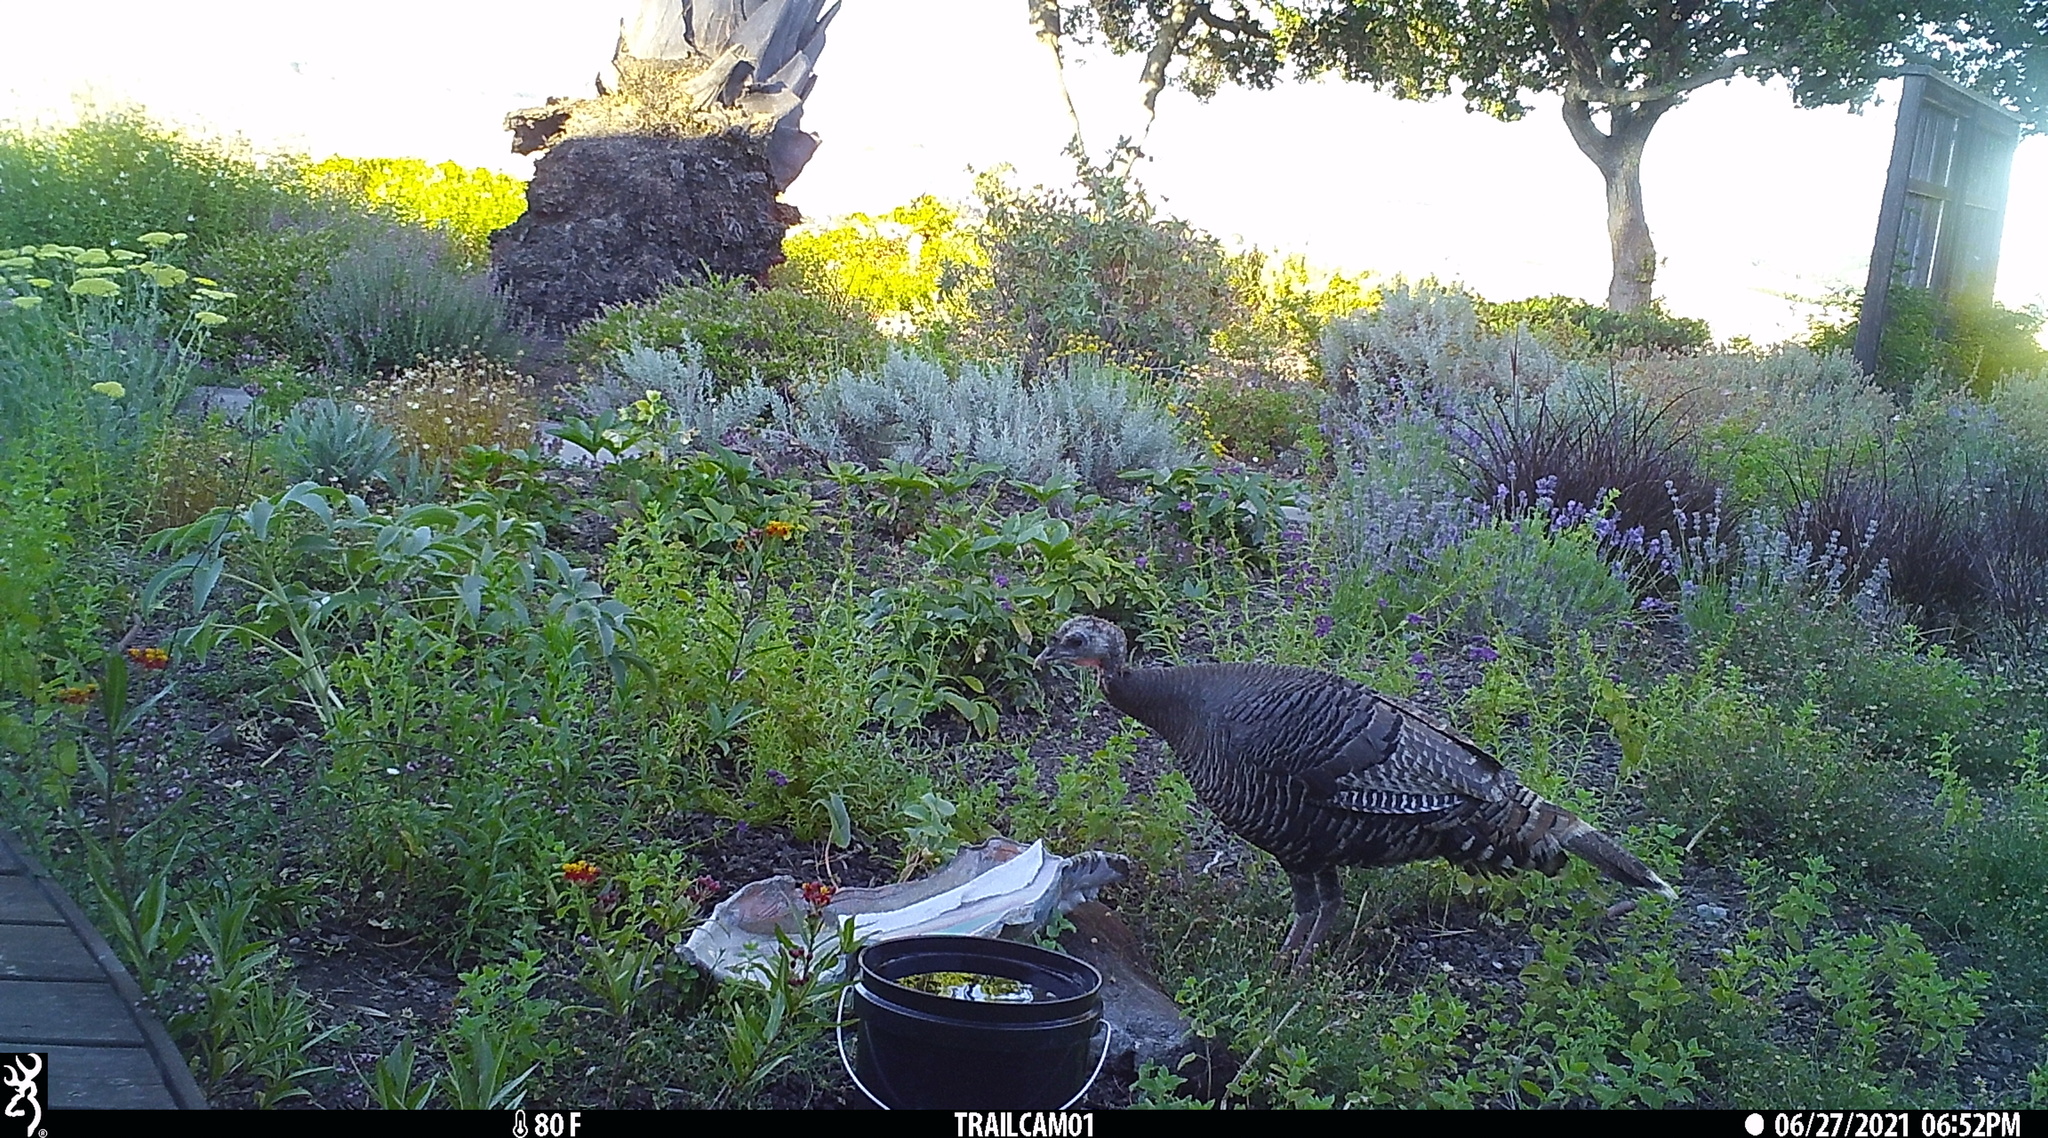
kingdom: Animalia
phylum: Chordata
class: Aves
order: Galliformes
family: Phasianidae
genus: Meleagris
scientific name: Meleagris gallopavo
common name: Wild turkey
